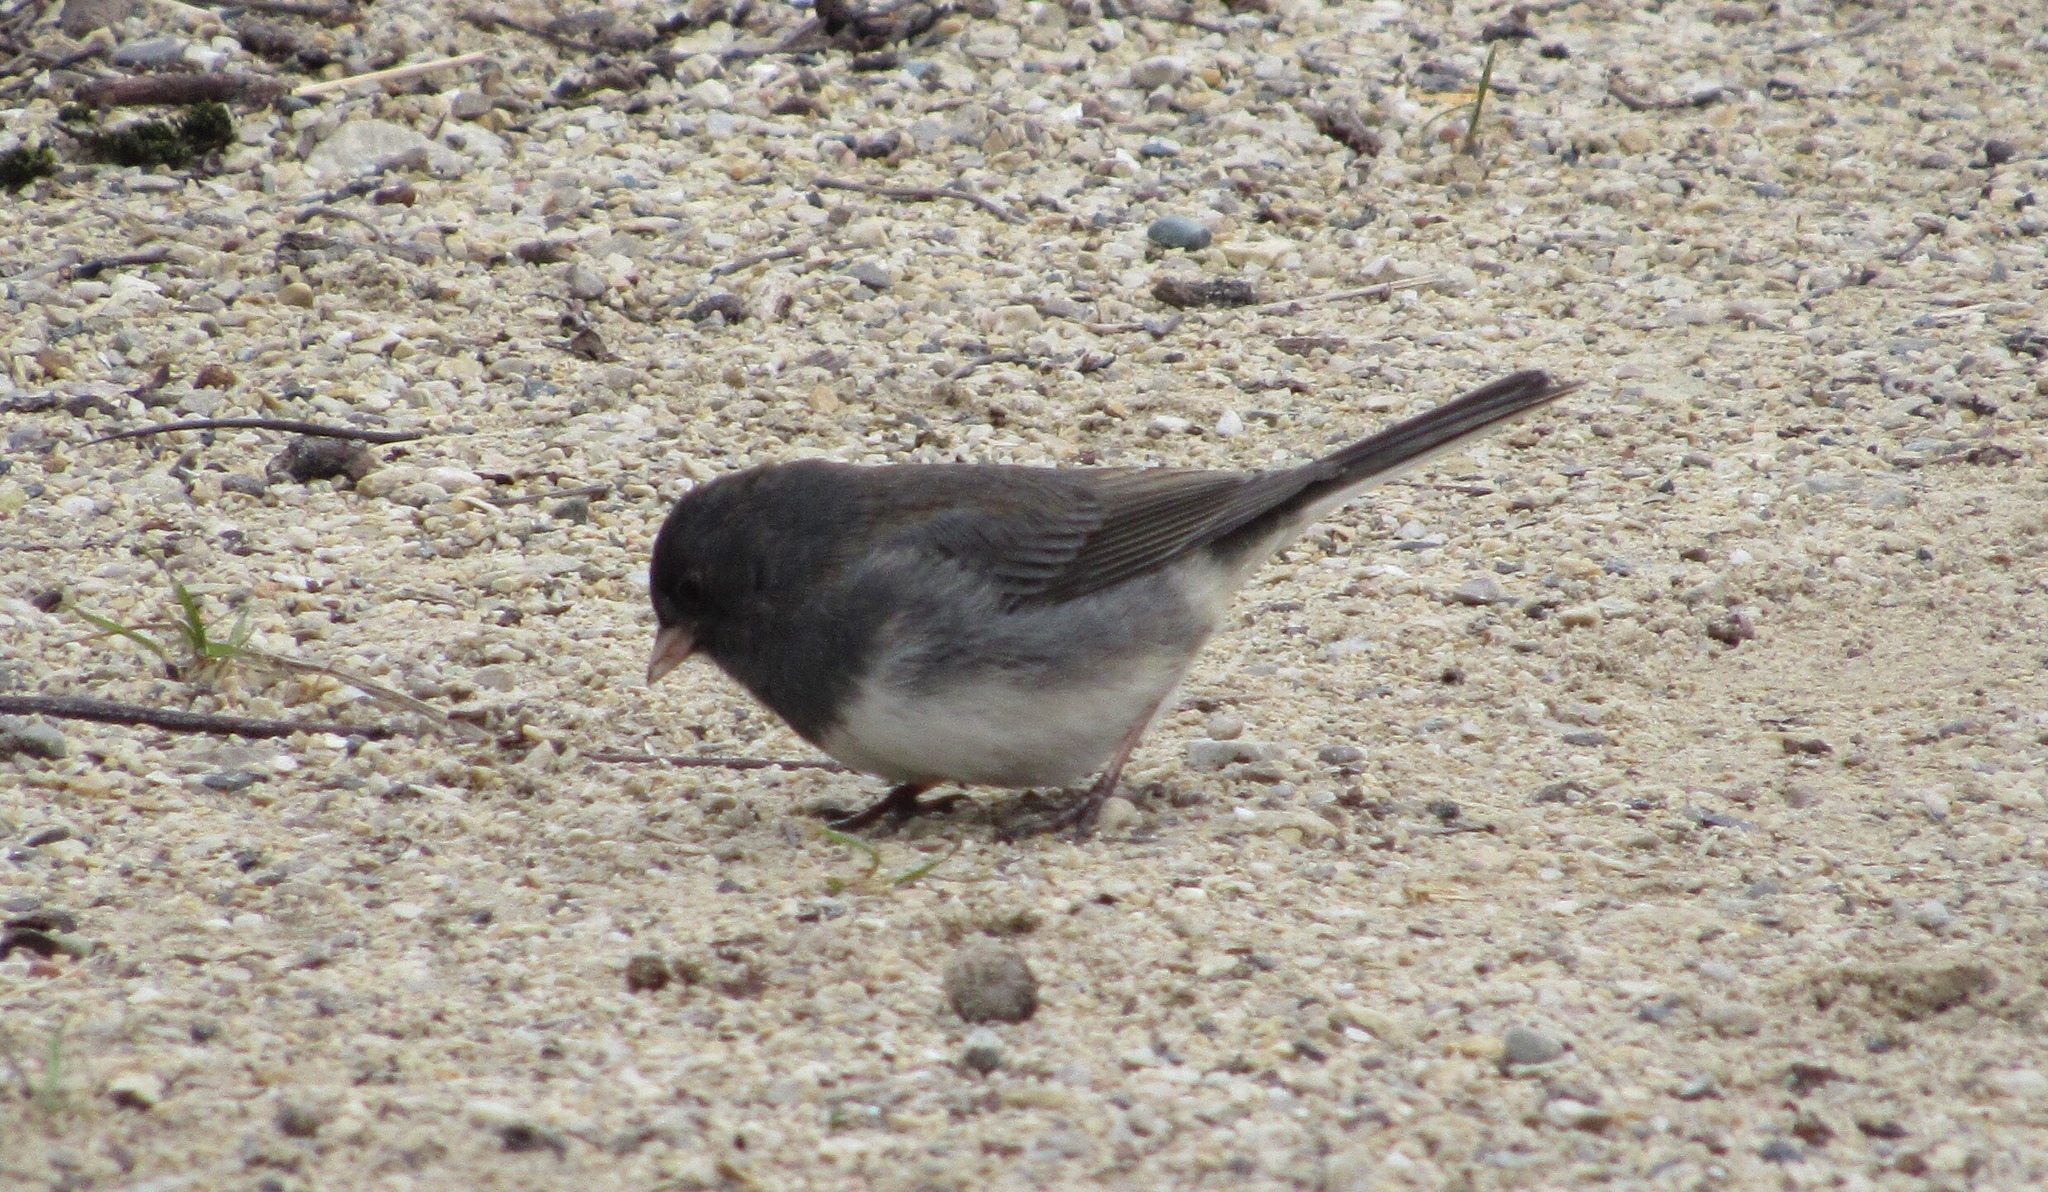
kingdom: Animalia
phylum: Chordata
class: Aves
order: Passeriformes
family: Passerellidae
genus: Junco
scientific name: Junco hyemalis
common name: Dark-eyed junco
